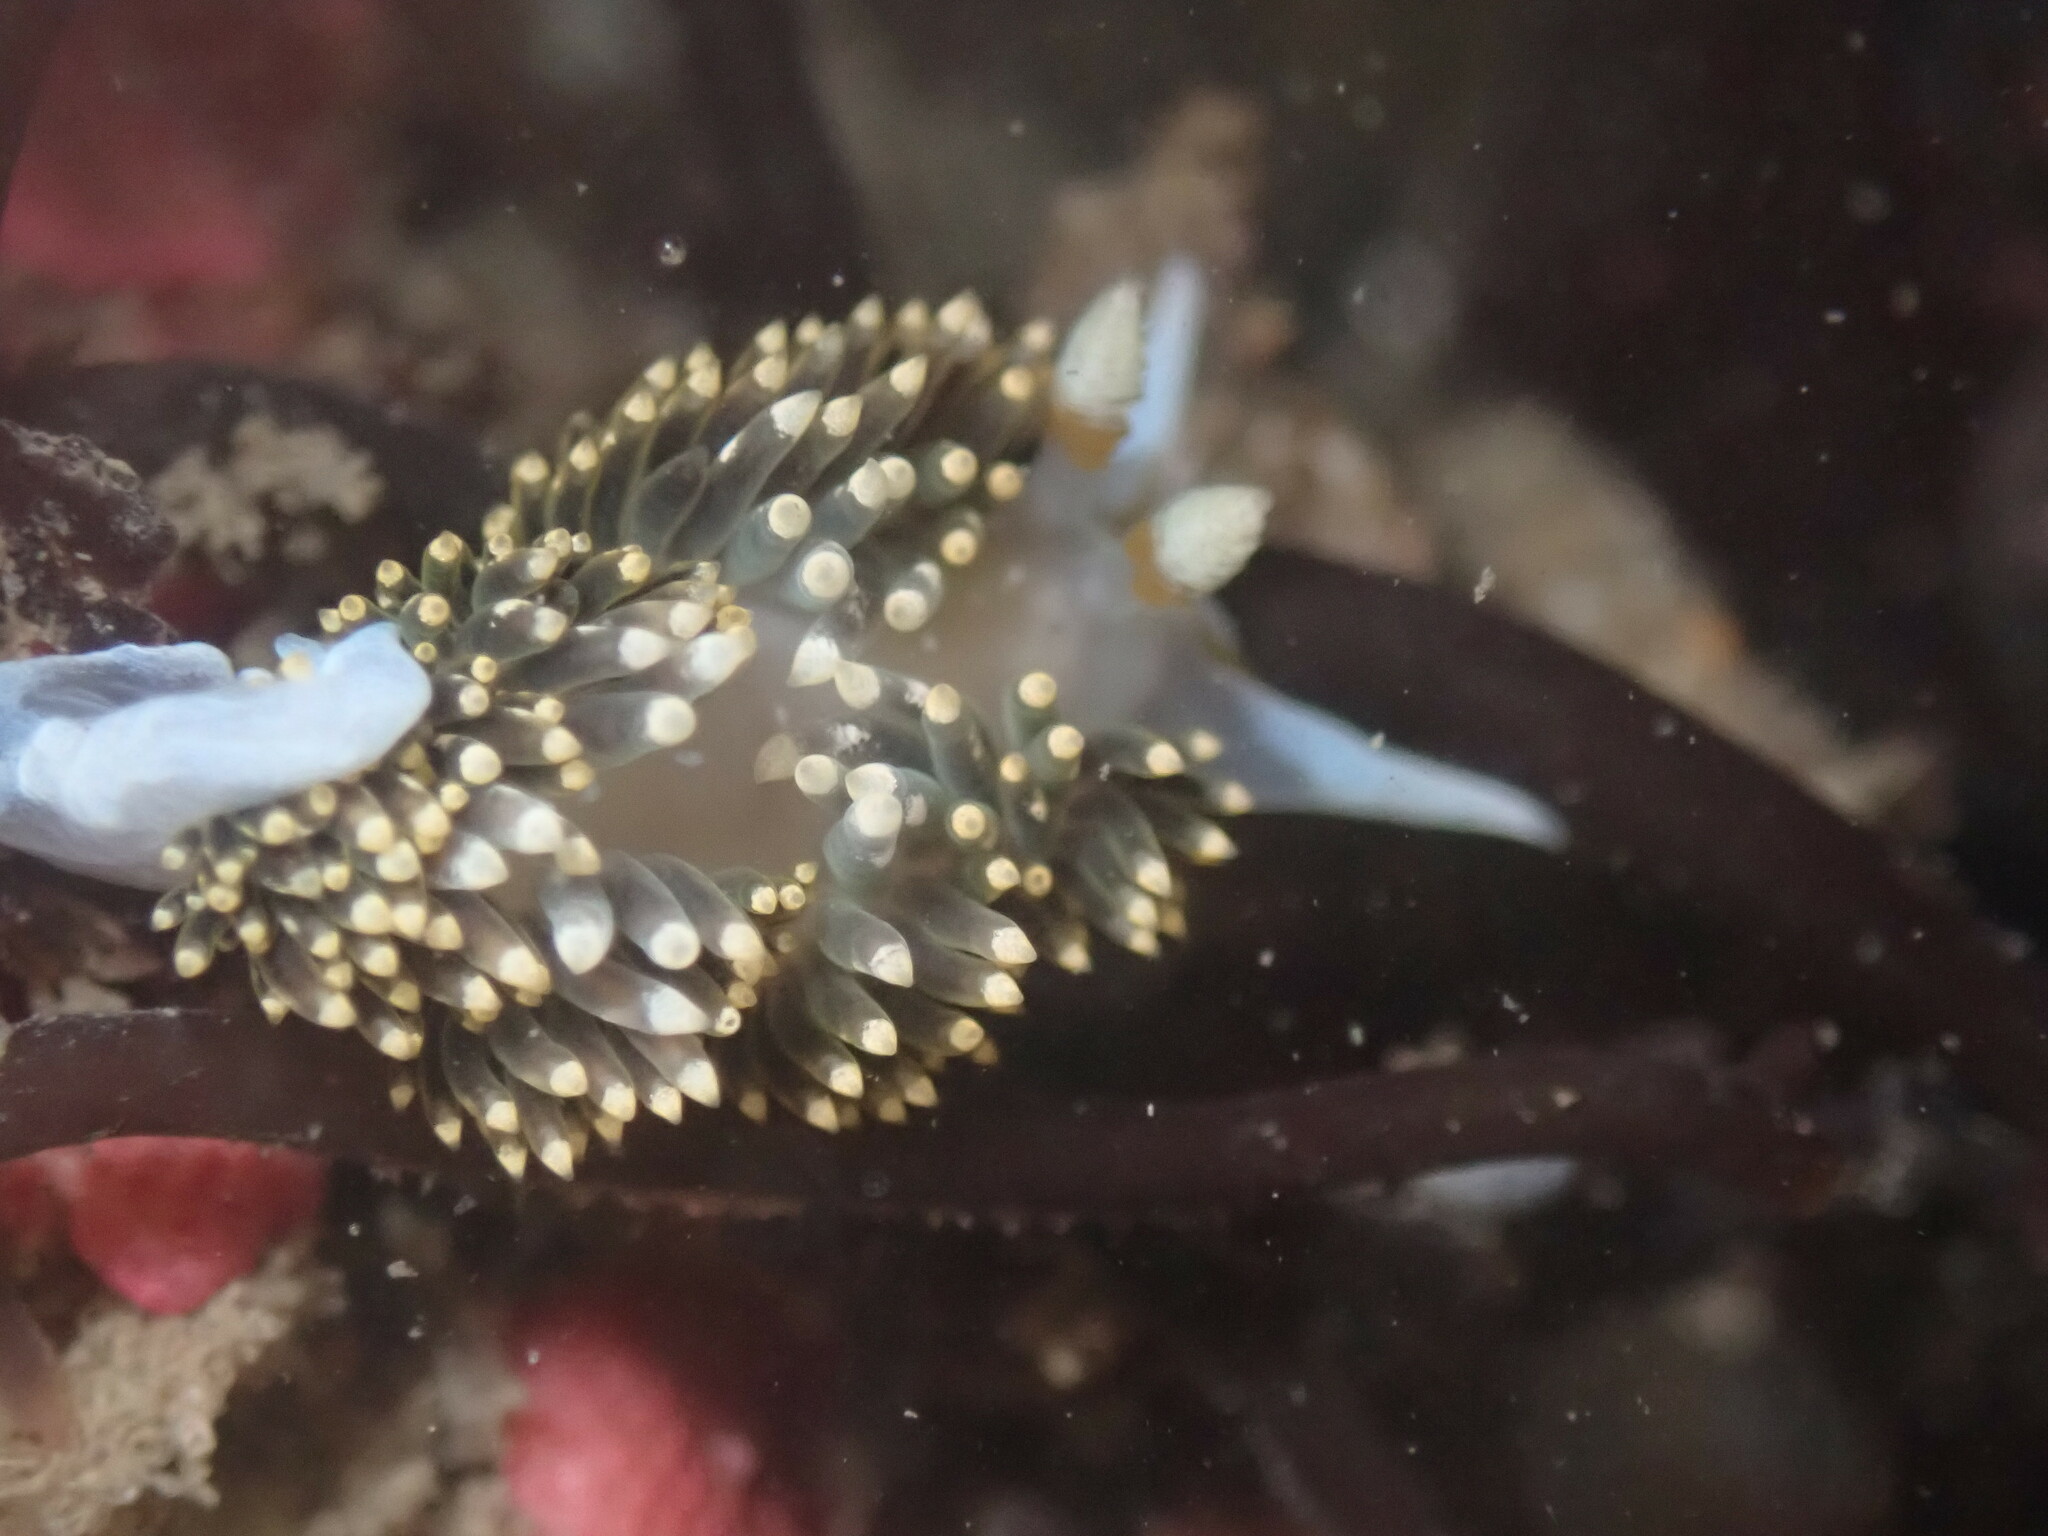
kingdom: Animalia
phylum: Mollusca
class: Gastropoda
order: Nudibranchia
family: Facelinidae
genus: Phidiana
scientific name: Phidiana hiltoni
